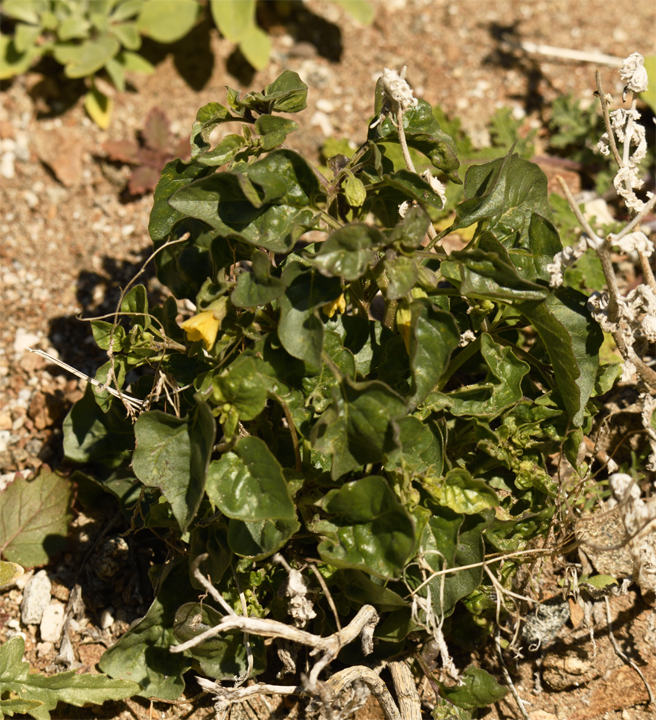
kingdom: Plantae
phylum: Tracheophyta
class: Magnoliopsida
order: Solanales
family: Solanaceae
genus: Physalis
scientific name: Physalis crassifolia
